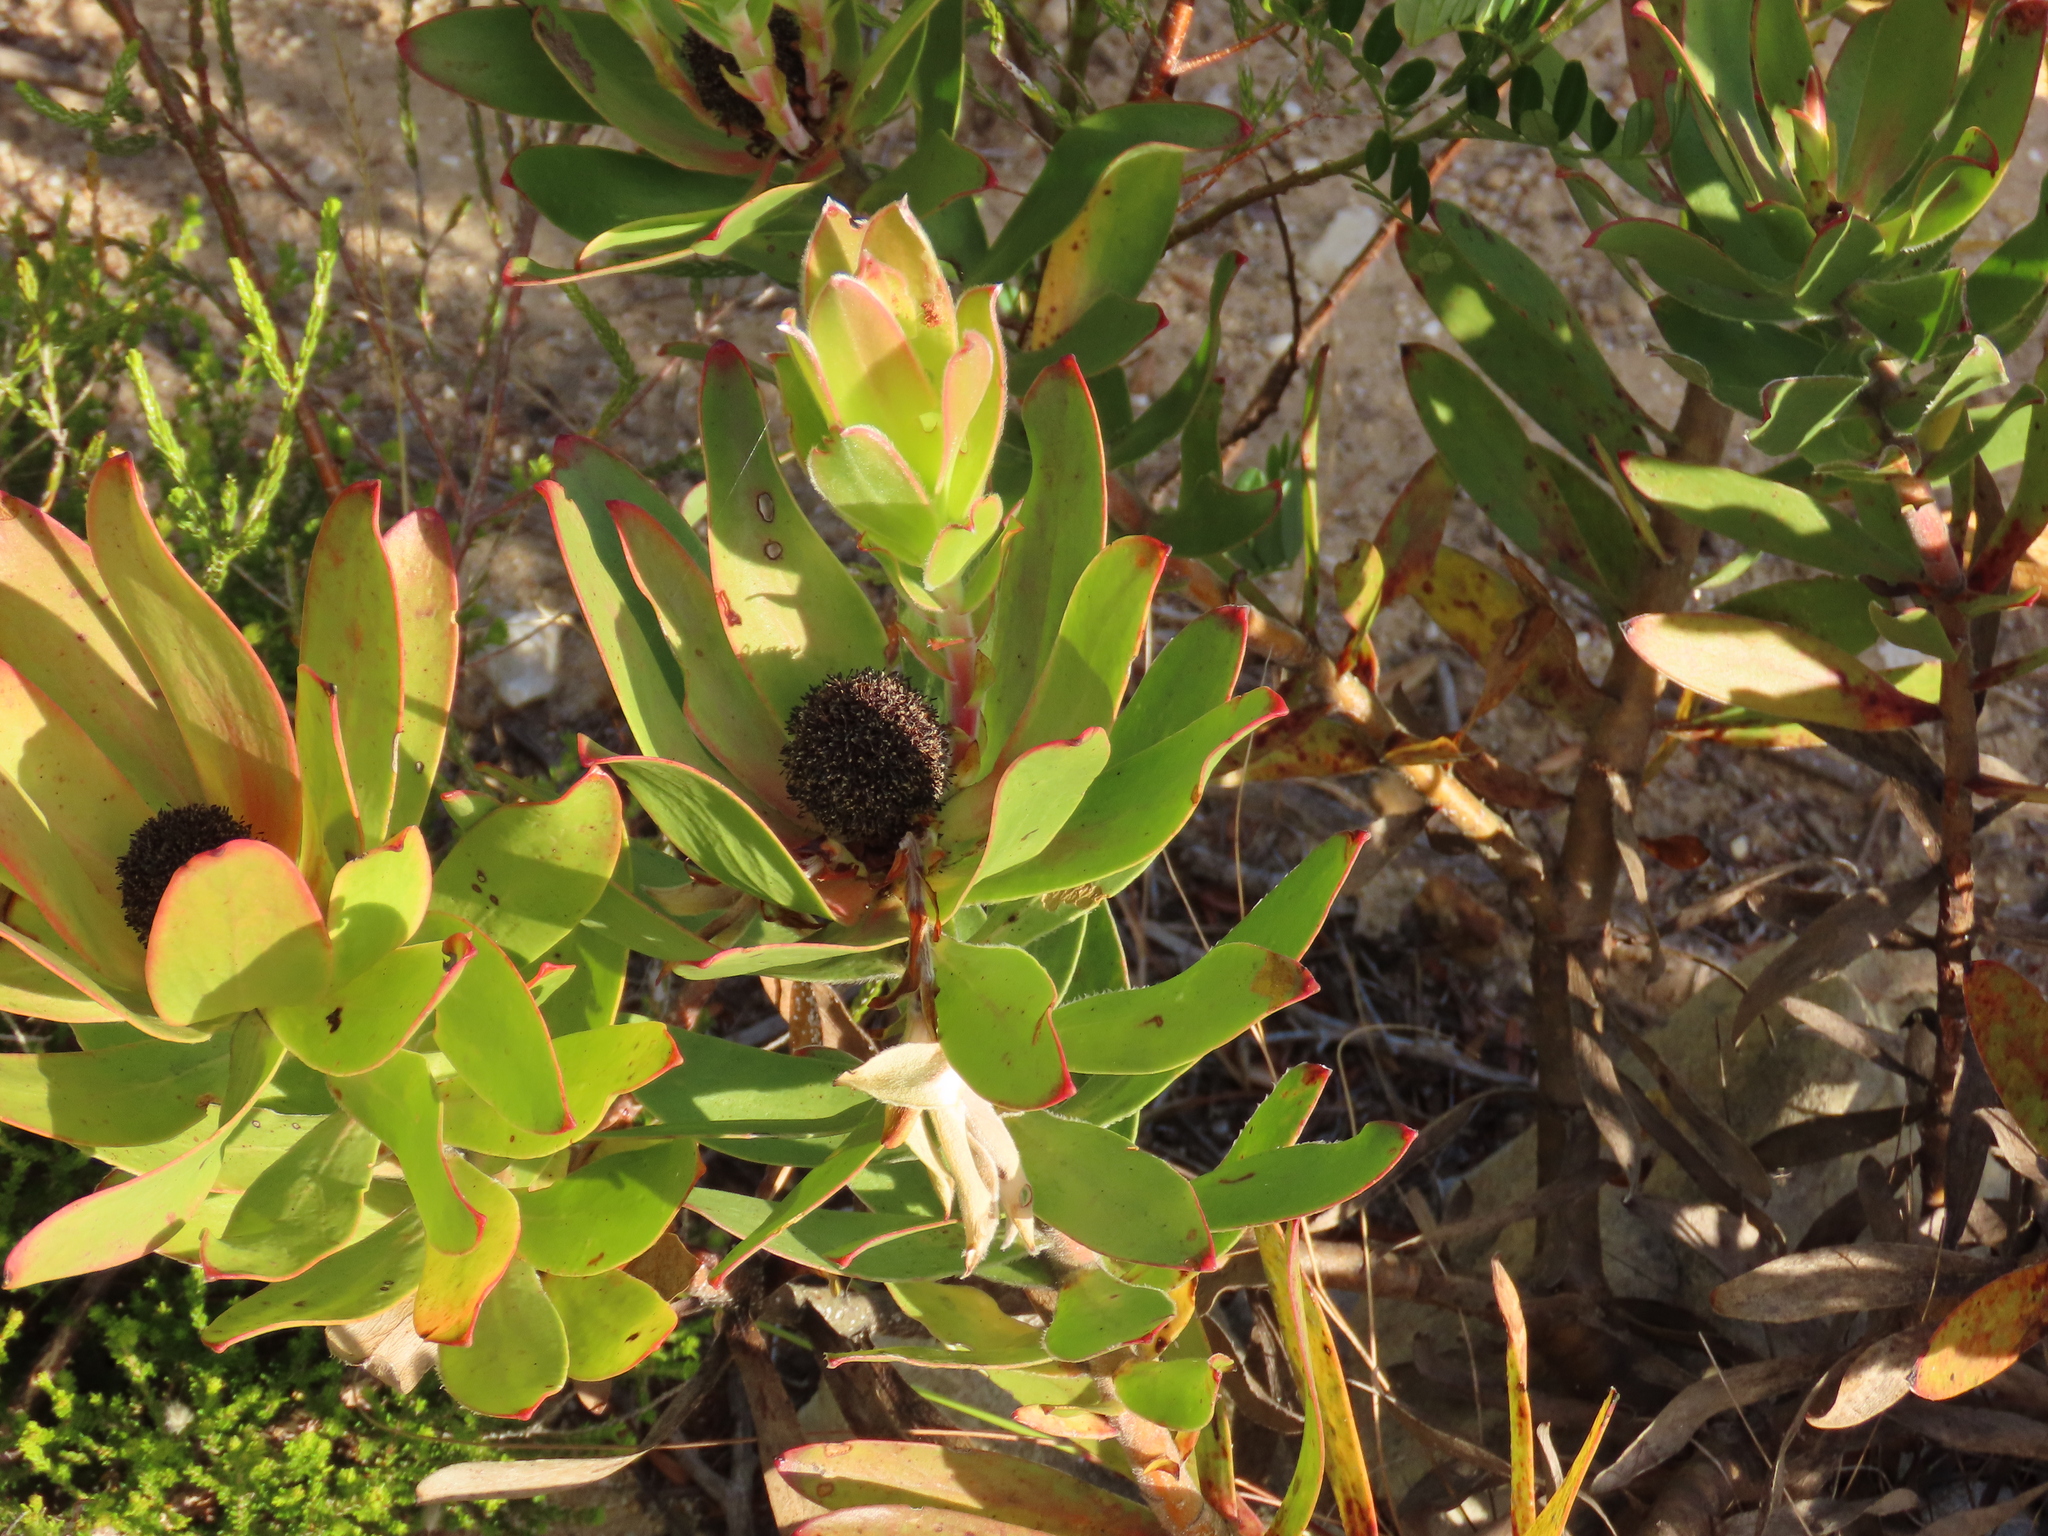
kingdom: Plantae
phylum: Tracheophyta
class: Magnoliopsida
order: Proteales
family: Proteaceae
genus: Leucadendron
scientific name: Leucadendron gandogeri
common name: Broad-leaf conebush
